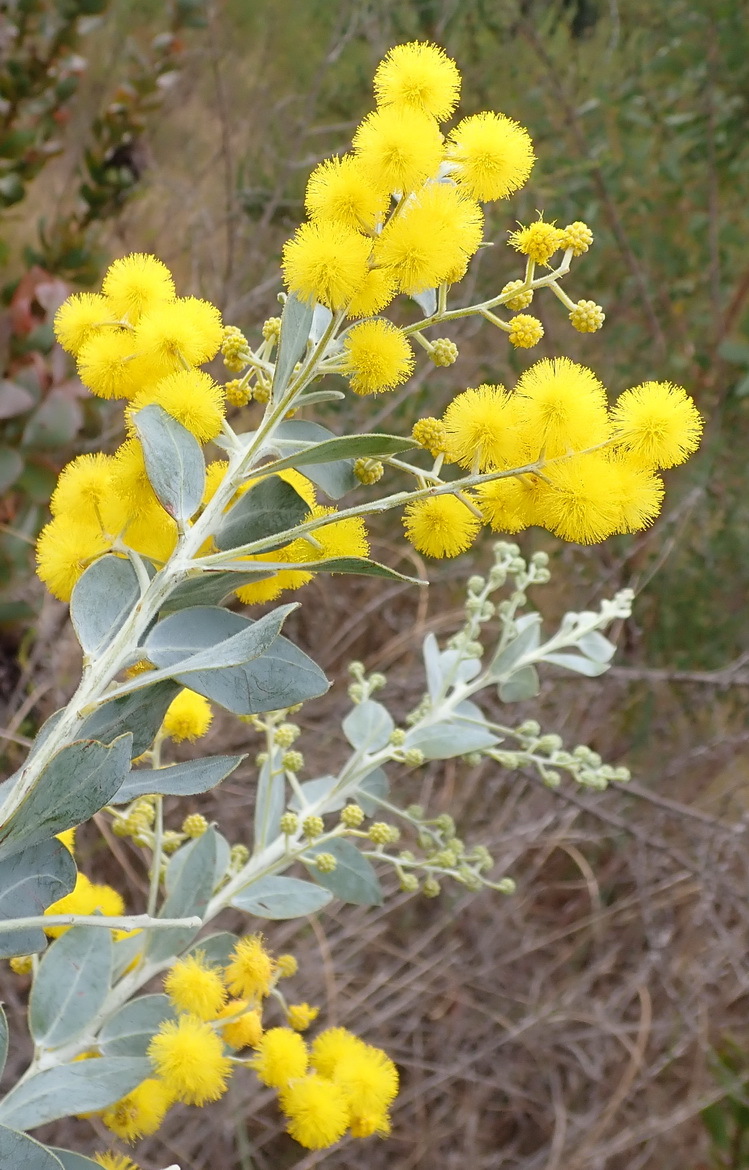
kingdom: Plantae
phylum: Tracheophyta
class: Magnoliopsida
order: Fabales
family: Fabaceae
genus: Acacia
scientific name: Acacia podalyriifolia
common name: Pearl wattle
